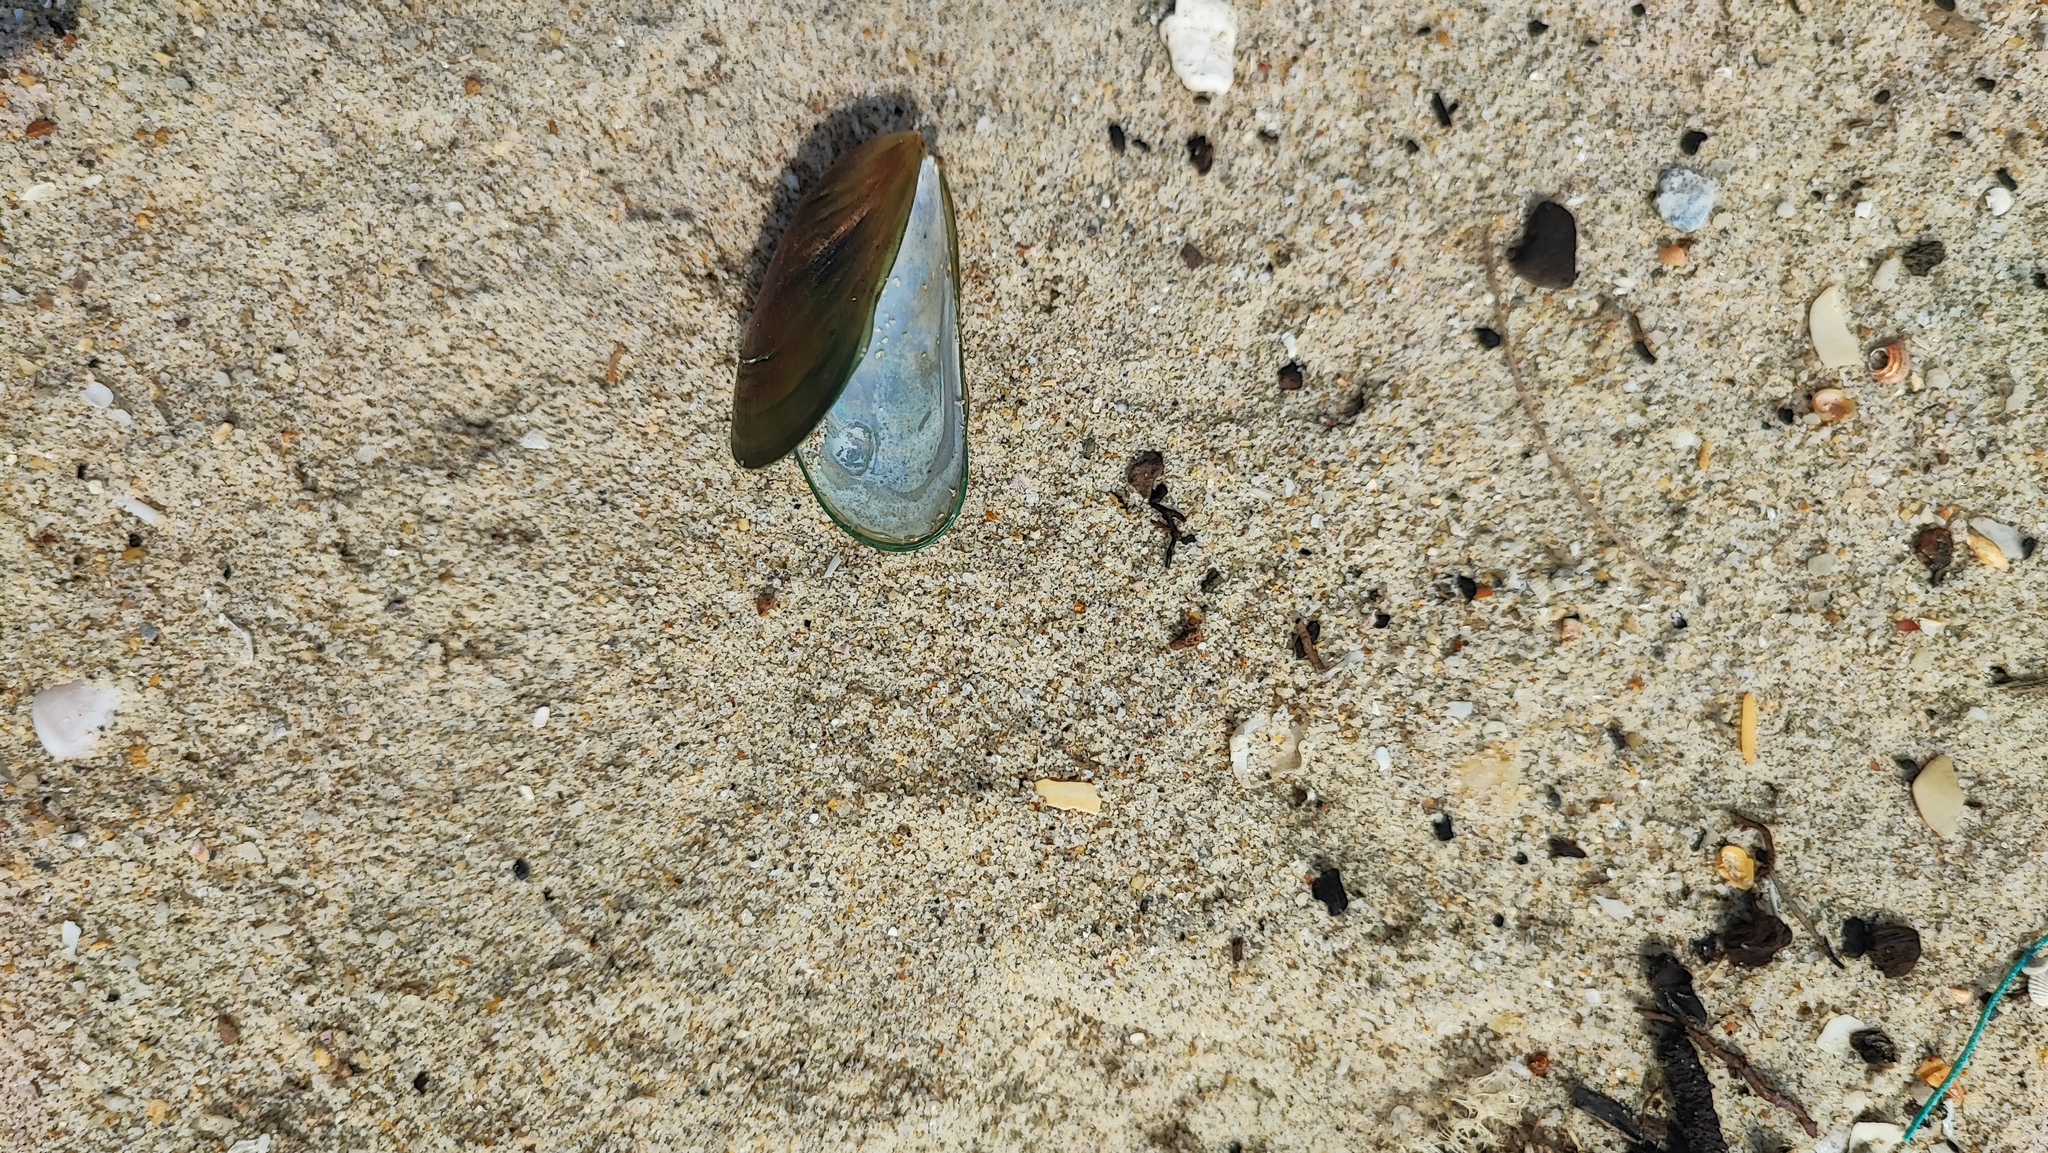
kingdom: Animalia
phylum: Mollusca
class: Bivalvia
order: Mytilida
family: Mytilidae
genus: Perna
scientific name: Perna viridis
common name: Green mussel
